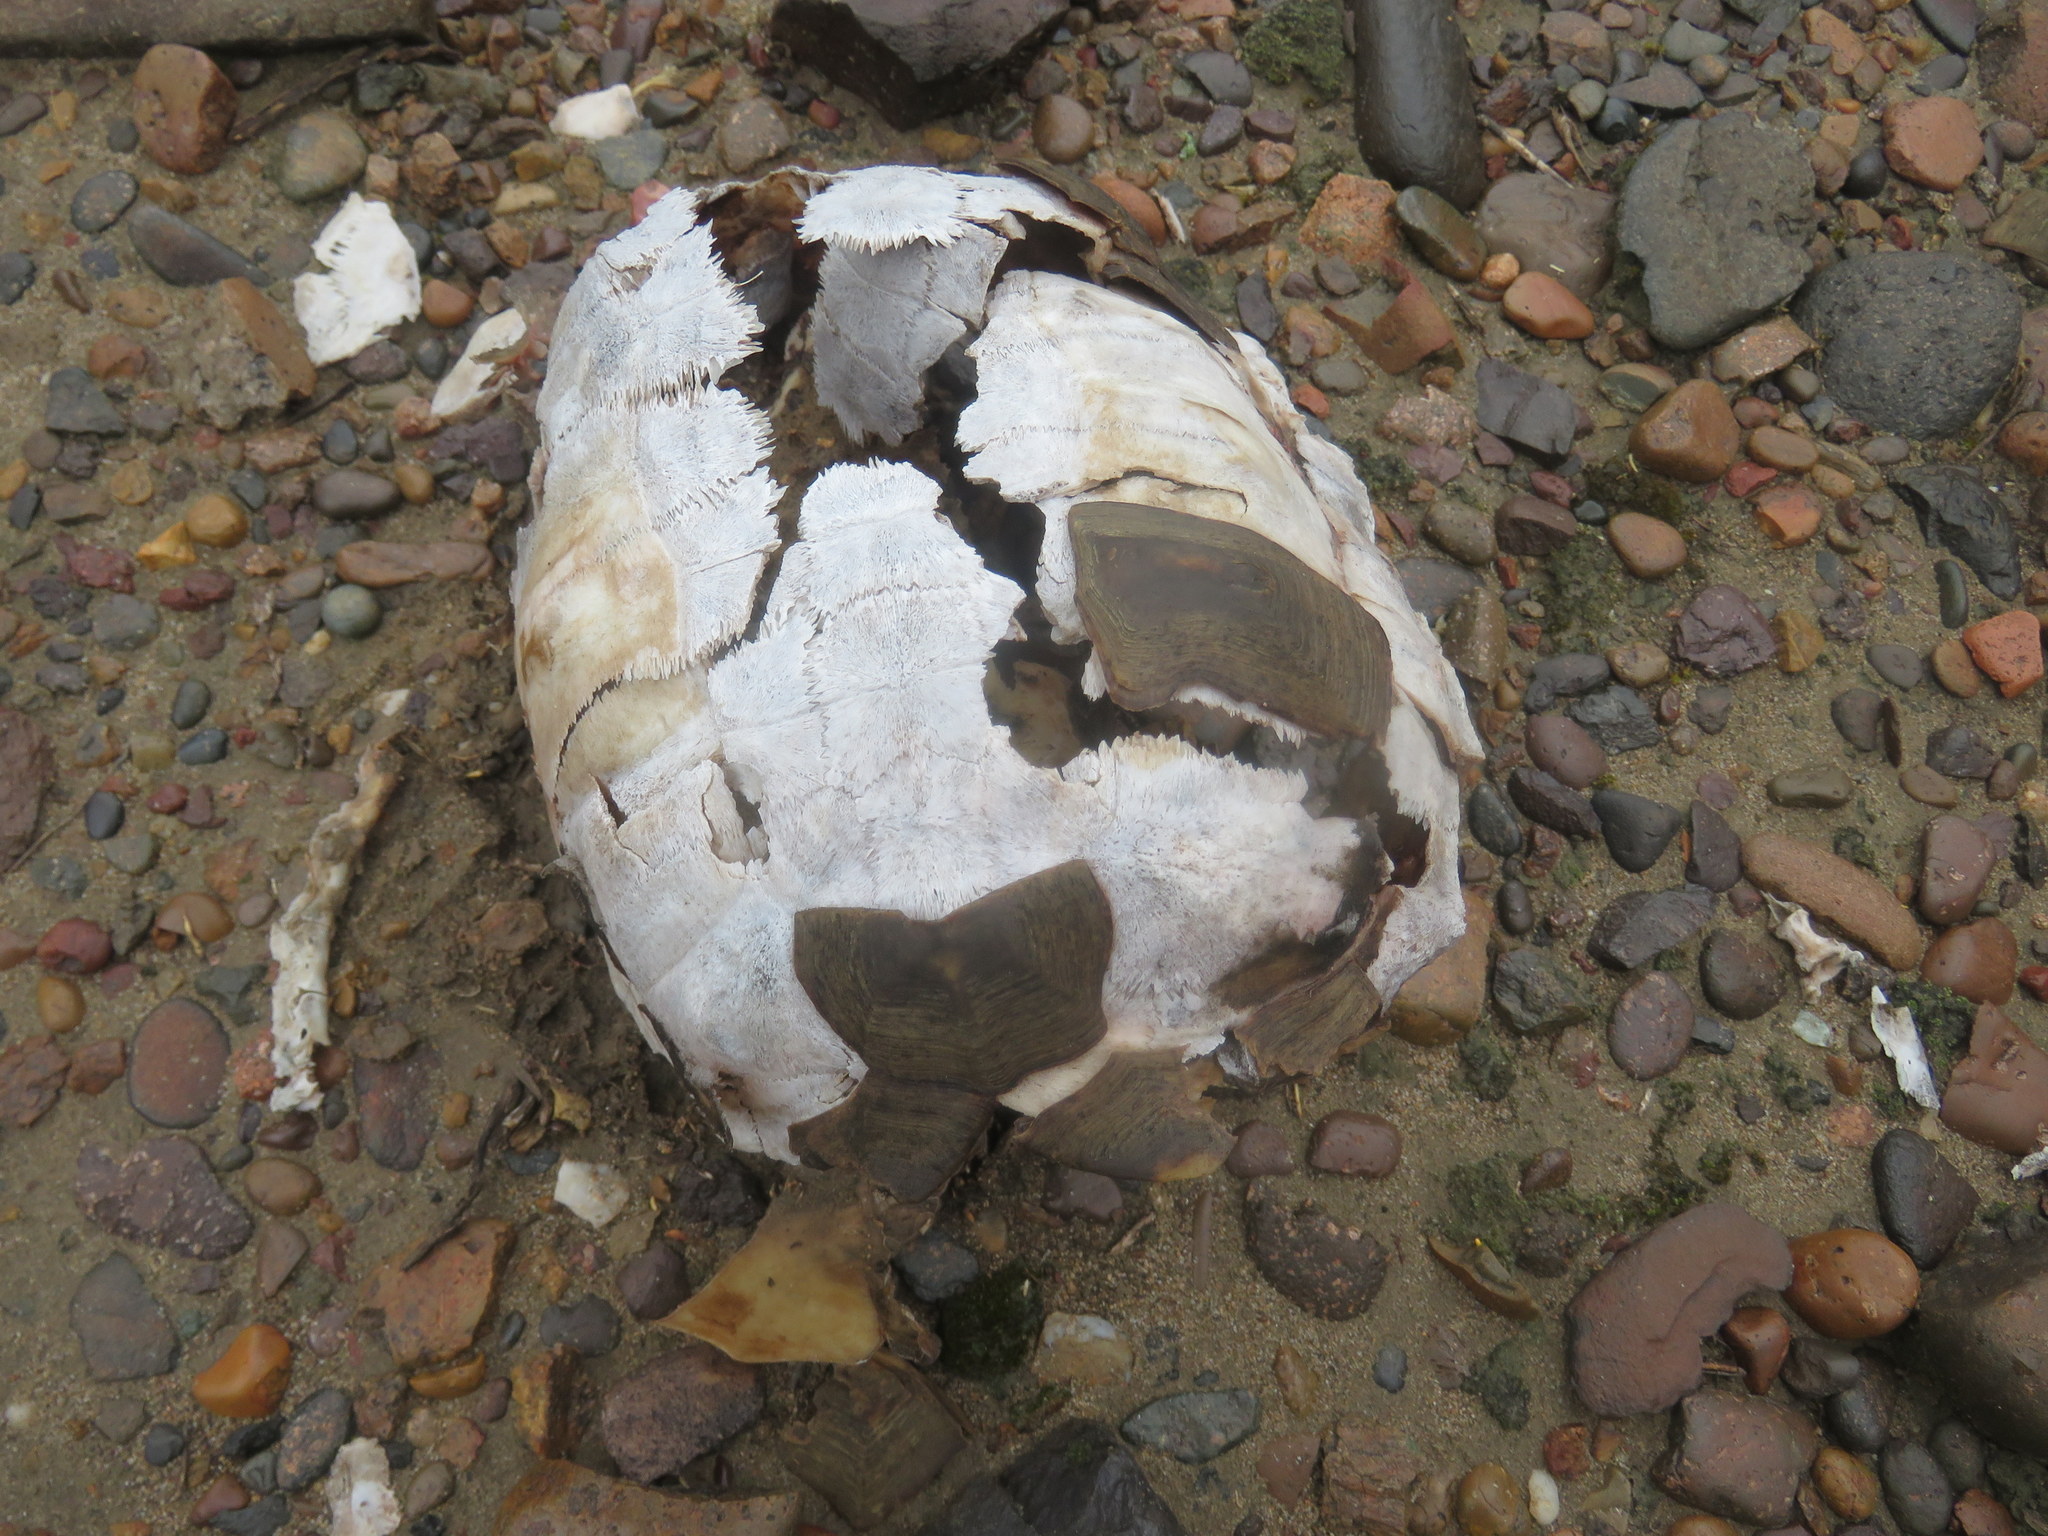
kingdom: Animalia
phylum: Chordata
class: Testudines
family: Testudinidae
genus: Chelonoidis
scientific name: Chelonoidis chilensis
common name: Chaco tortoise
